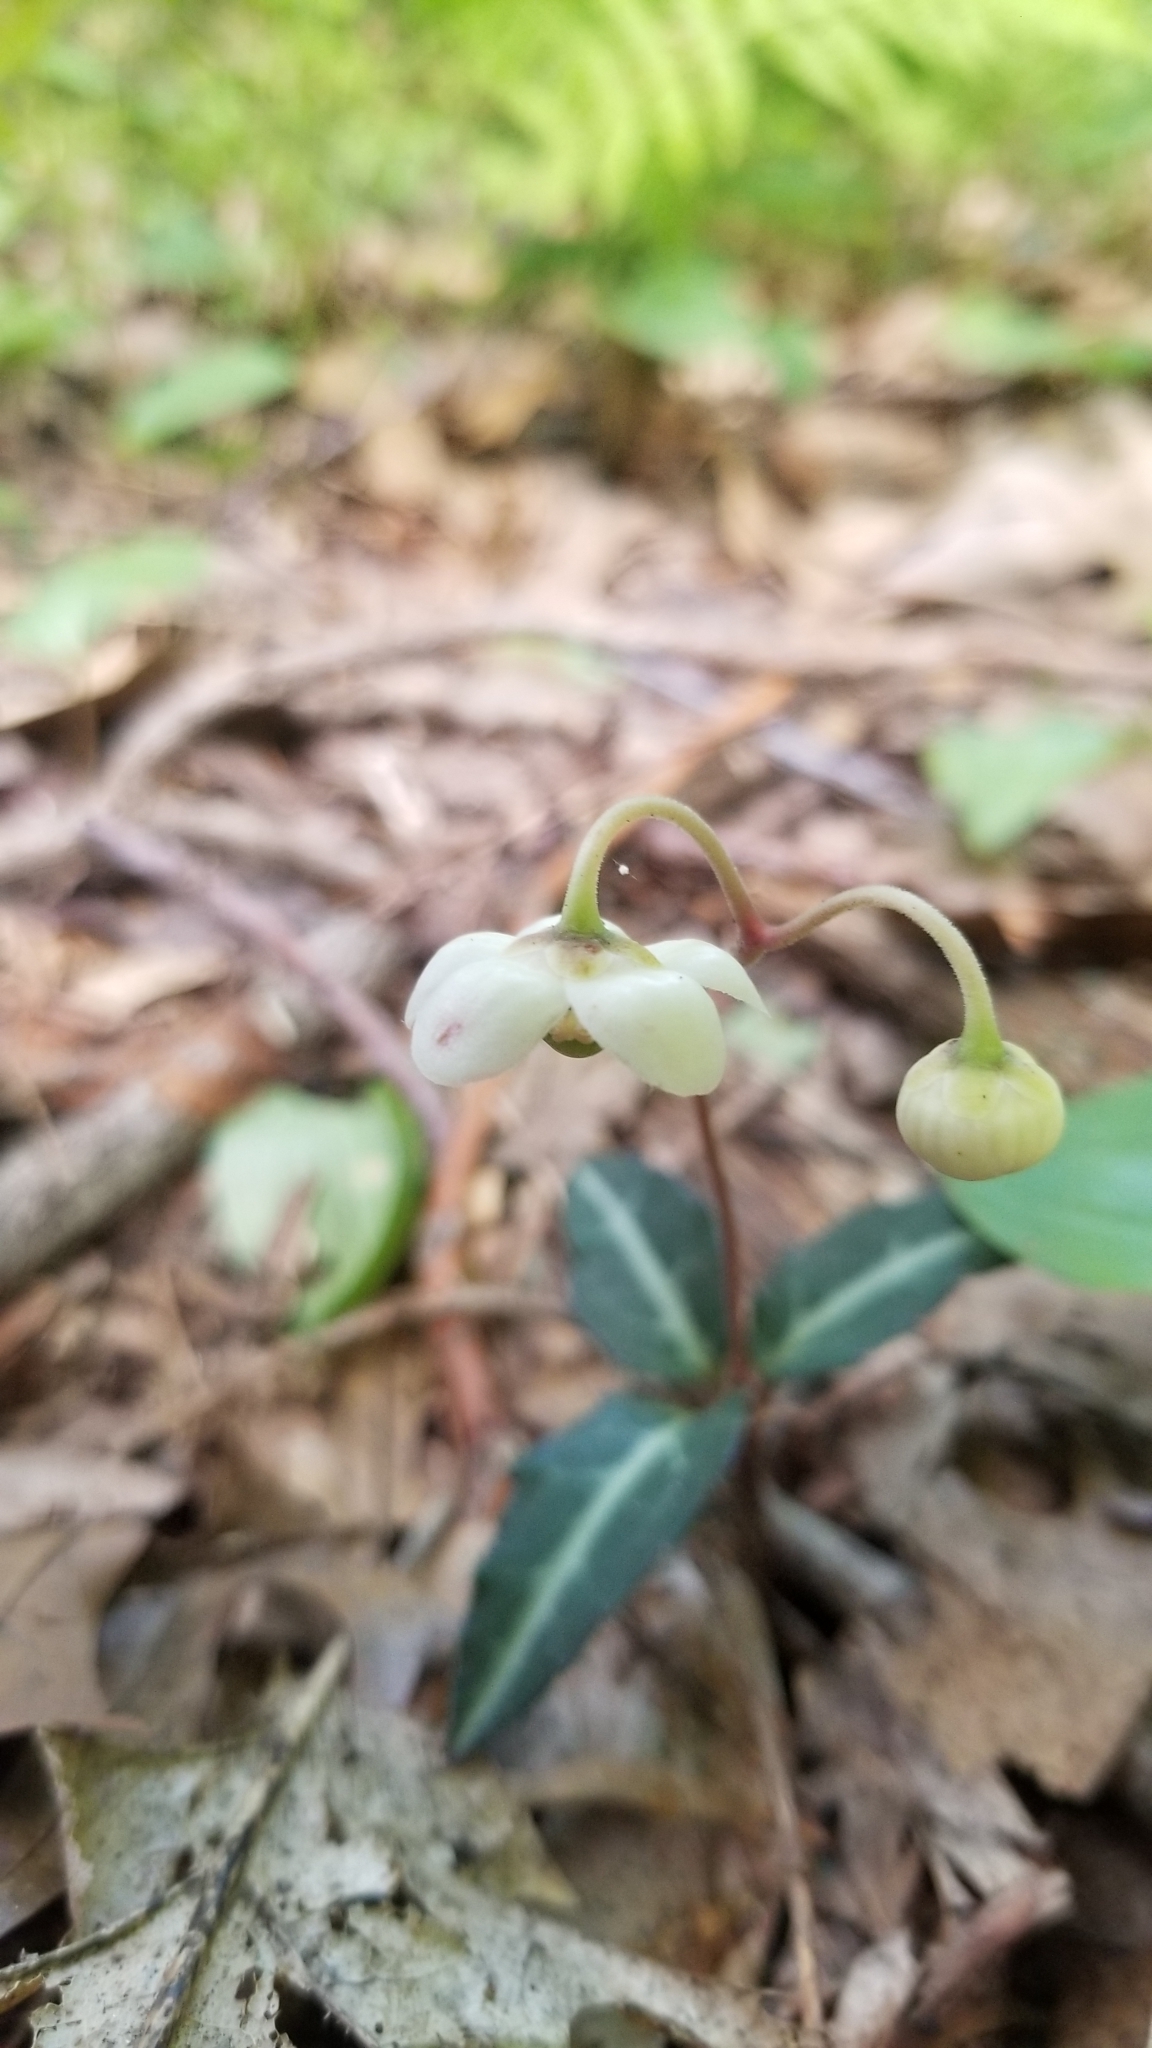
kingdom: Plantae
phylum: Tracheophyta
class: Magnoliopsida
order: Ericales
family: Ericaceae
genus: Chimaphila
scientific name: Chimaphila maculata
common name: Spotted pipsissewa
